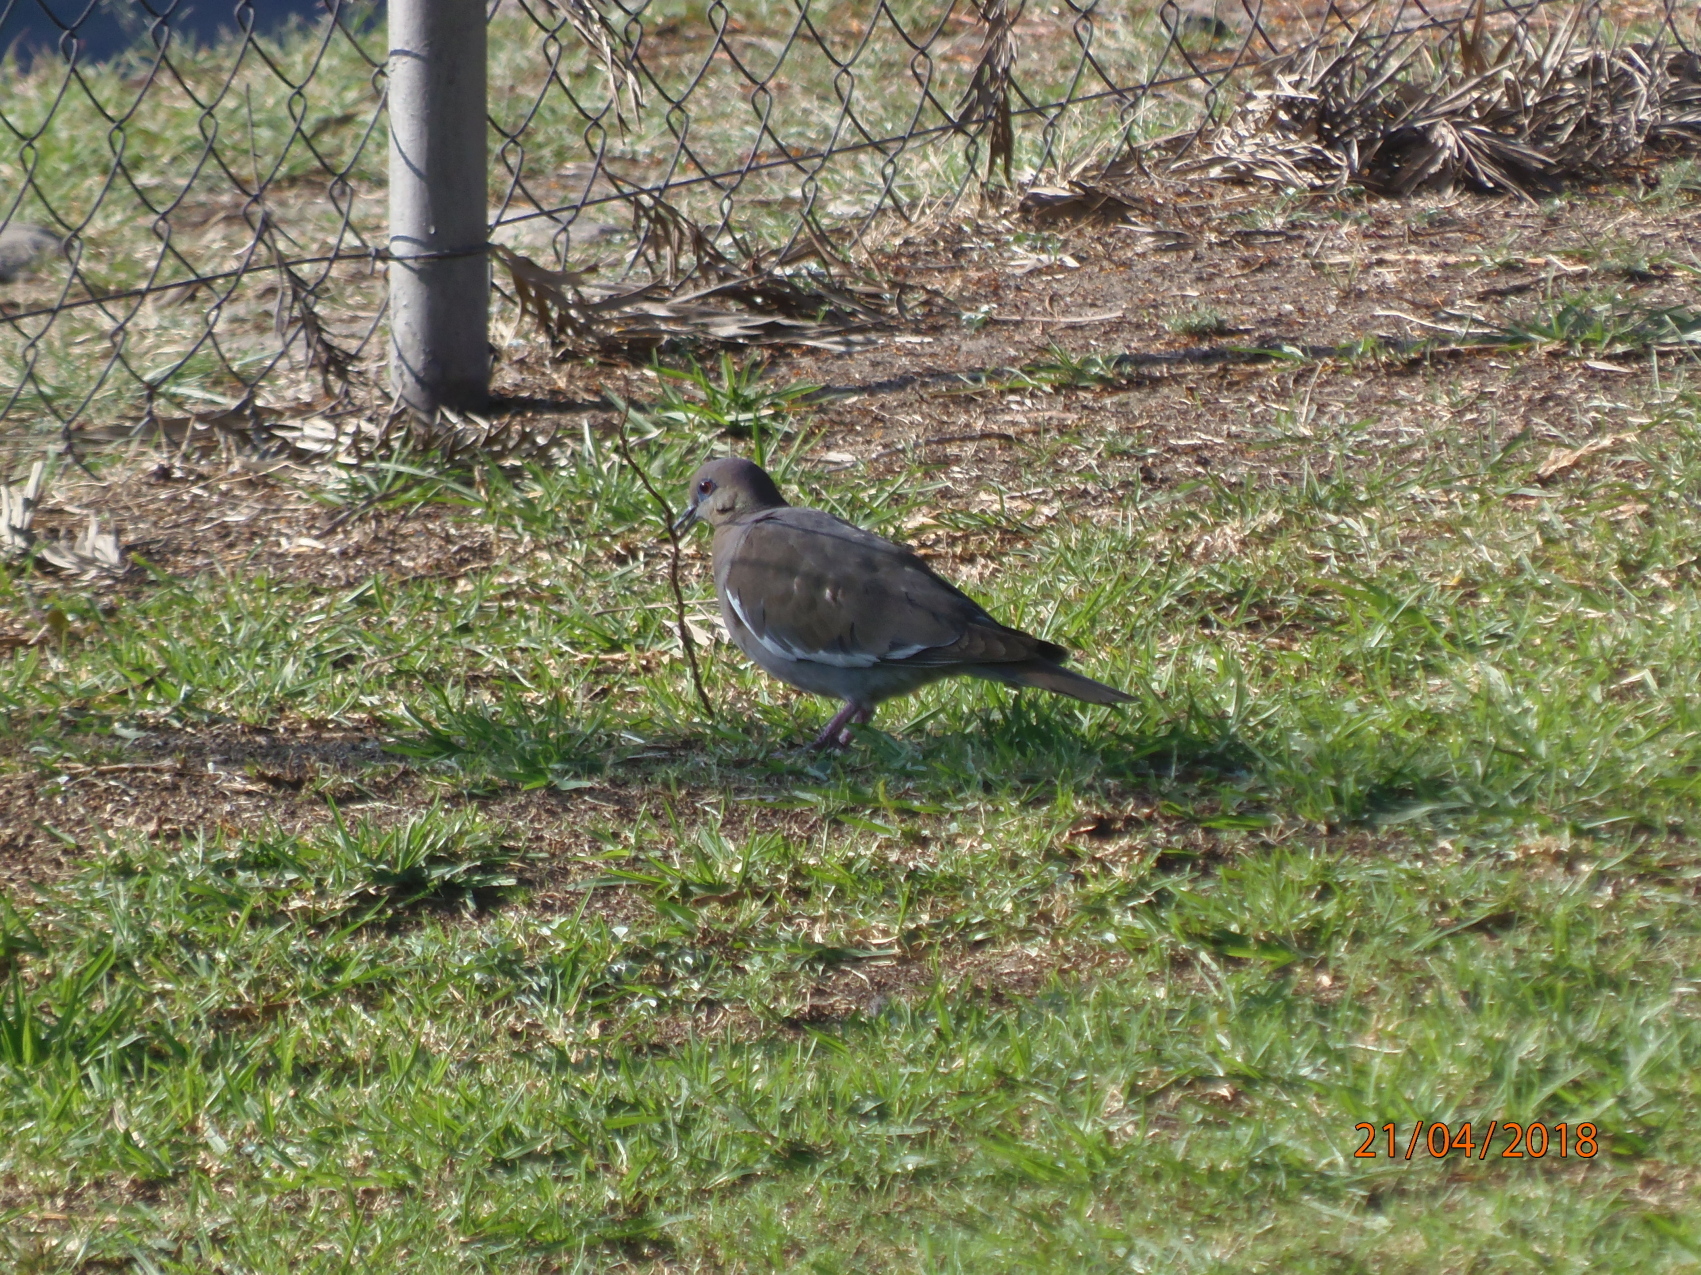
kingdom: Animalia
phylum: Chordata
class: Aves
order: Columbiformes
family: Columbidae
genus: Zenaida
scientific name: Zenaida asiatica
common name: White-winged dove
